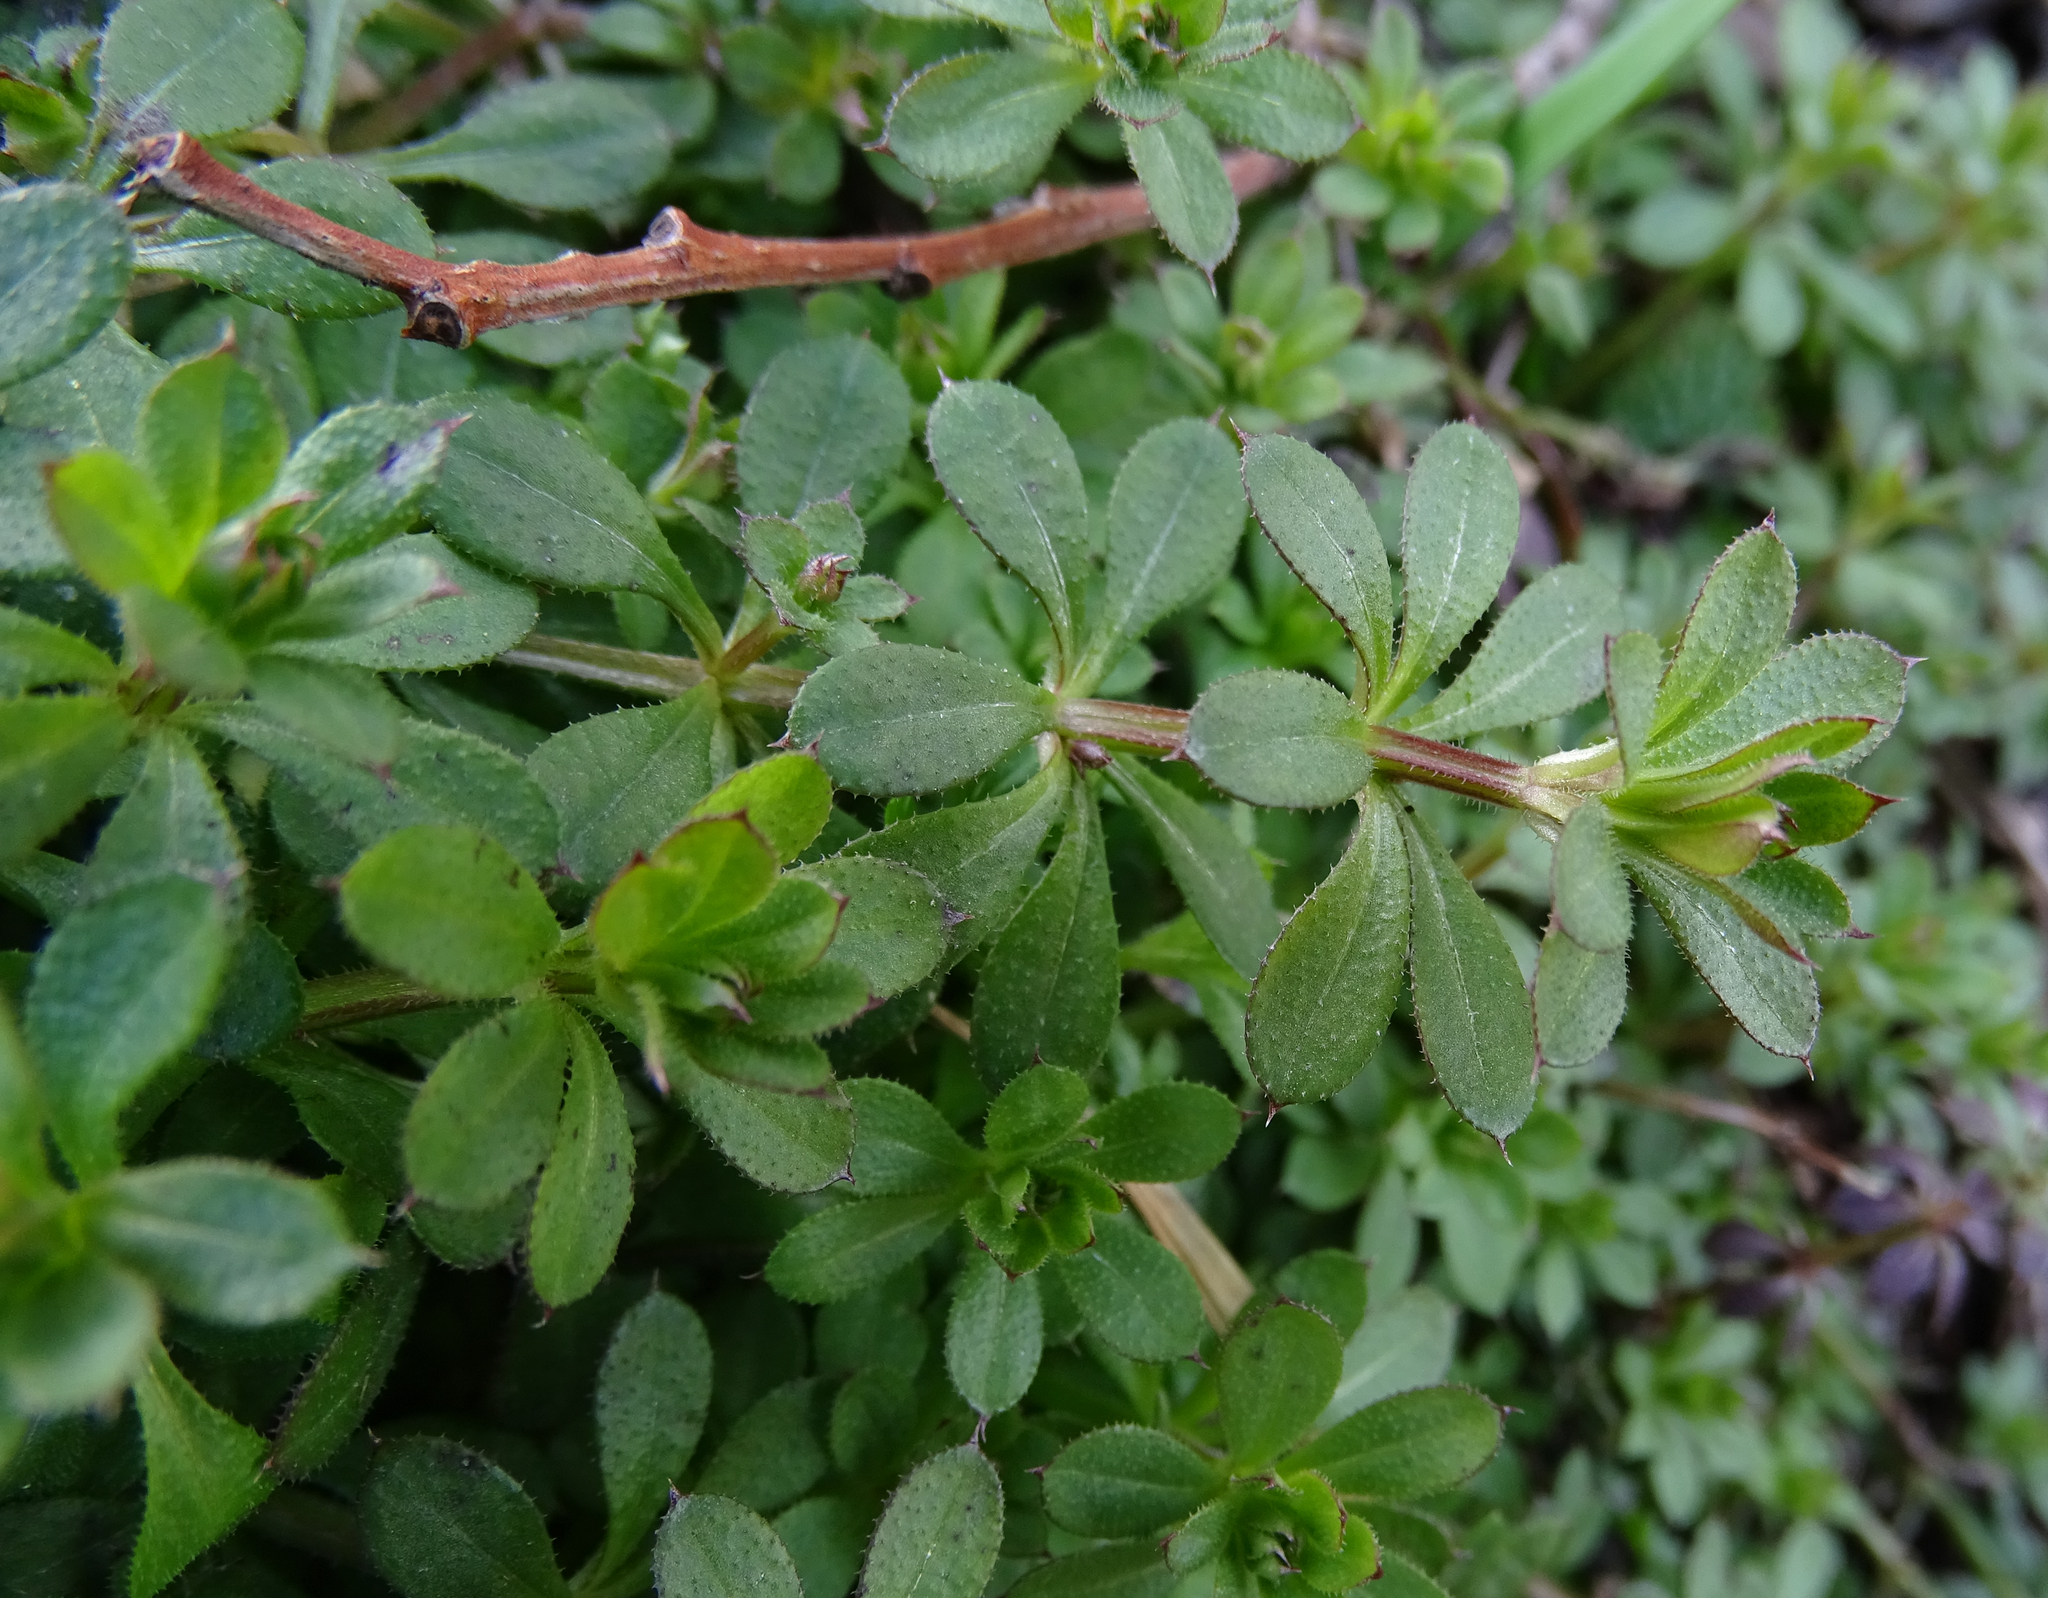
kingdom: Plantae
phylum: Tracheophyta
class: Magnoliopsida
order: Gentianales
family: Rubiaceae
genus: Galium
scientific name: Galium aparine
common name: Cleavers
